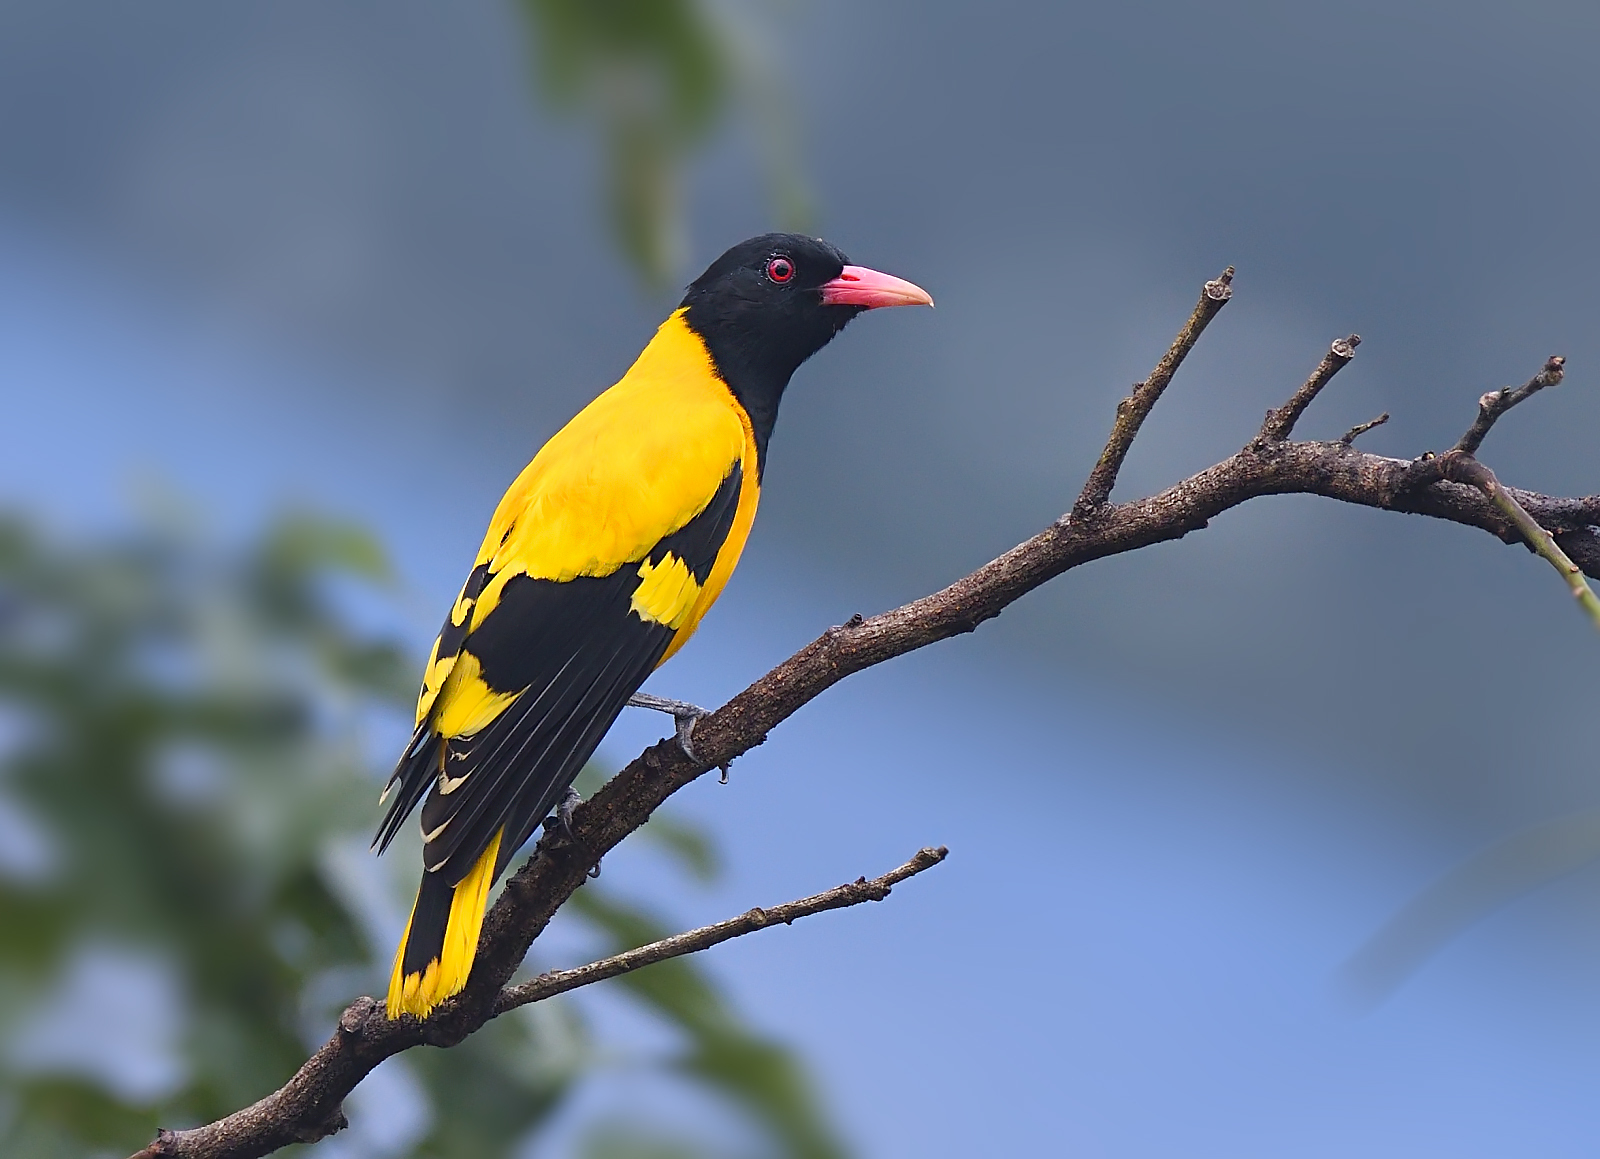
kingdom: Animalia
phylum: Chordata
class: Aves
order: Passeriformes
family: Oriolidae
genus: Oriolus
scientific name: Oriolus xanthornus
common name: Black-hooded oriole
